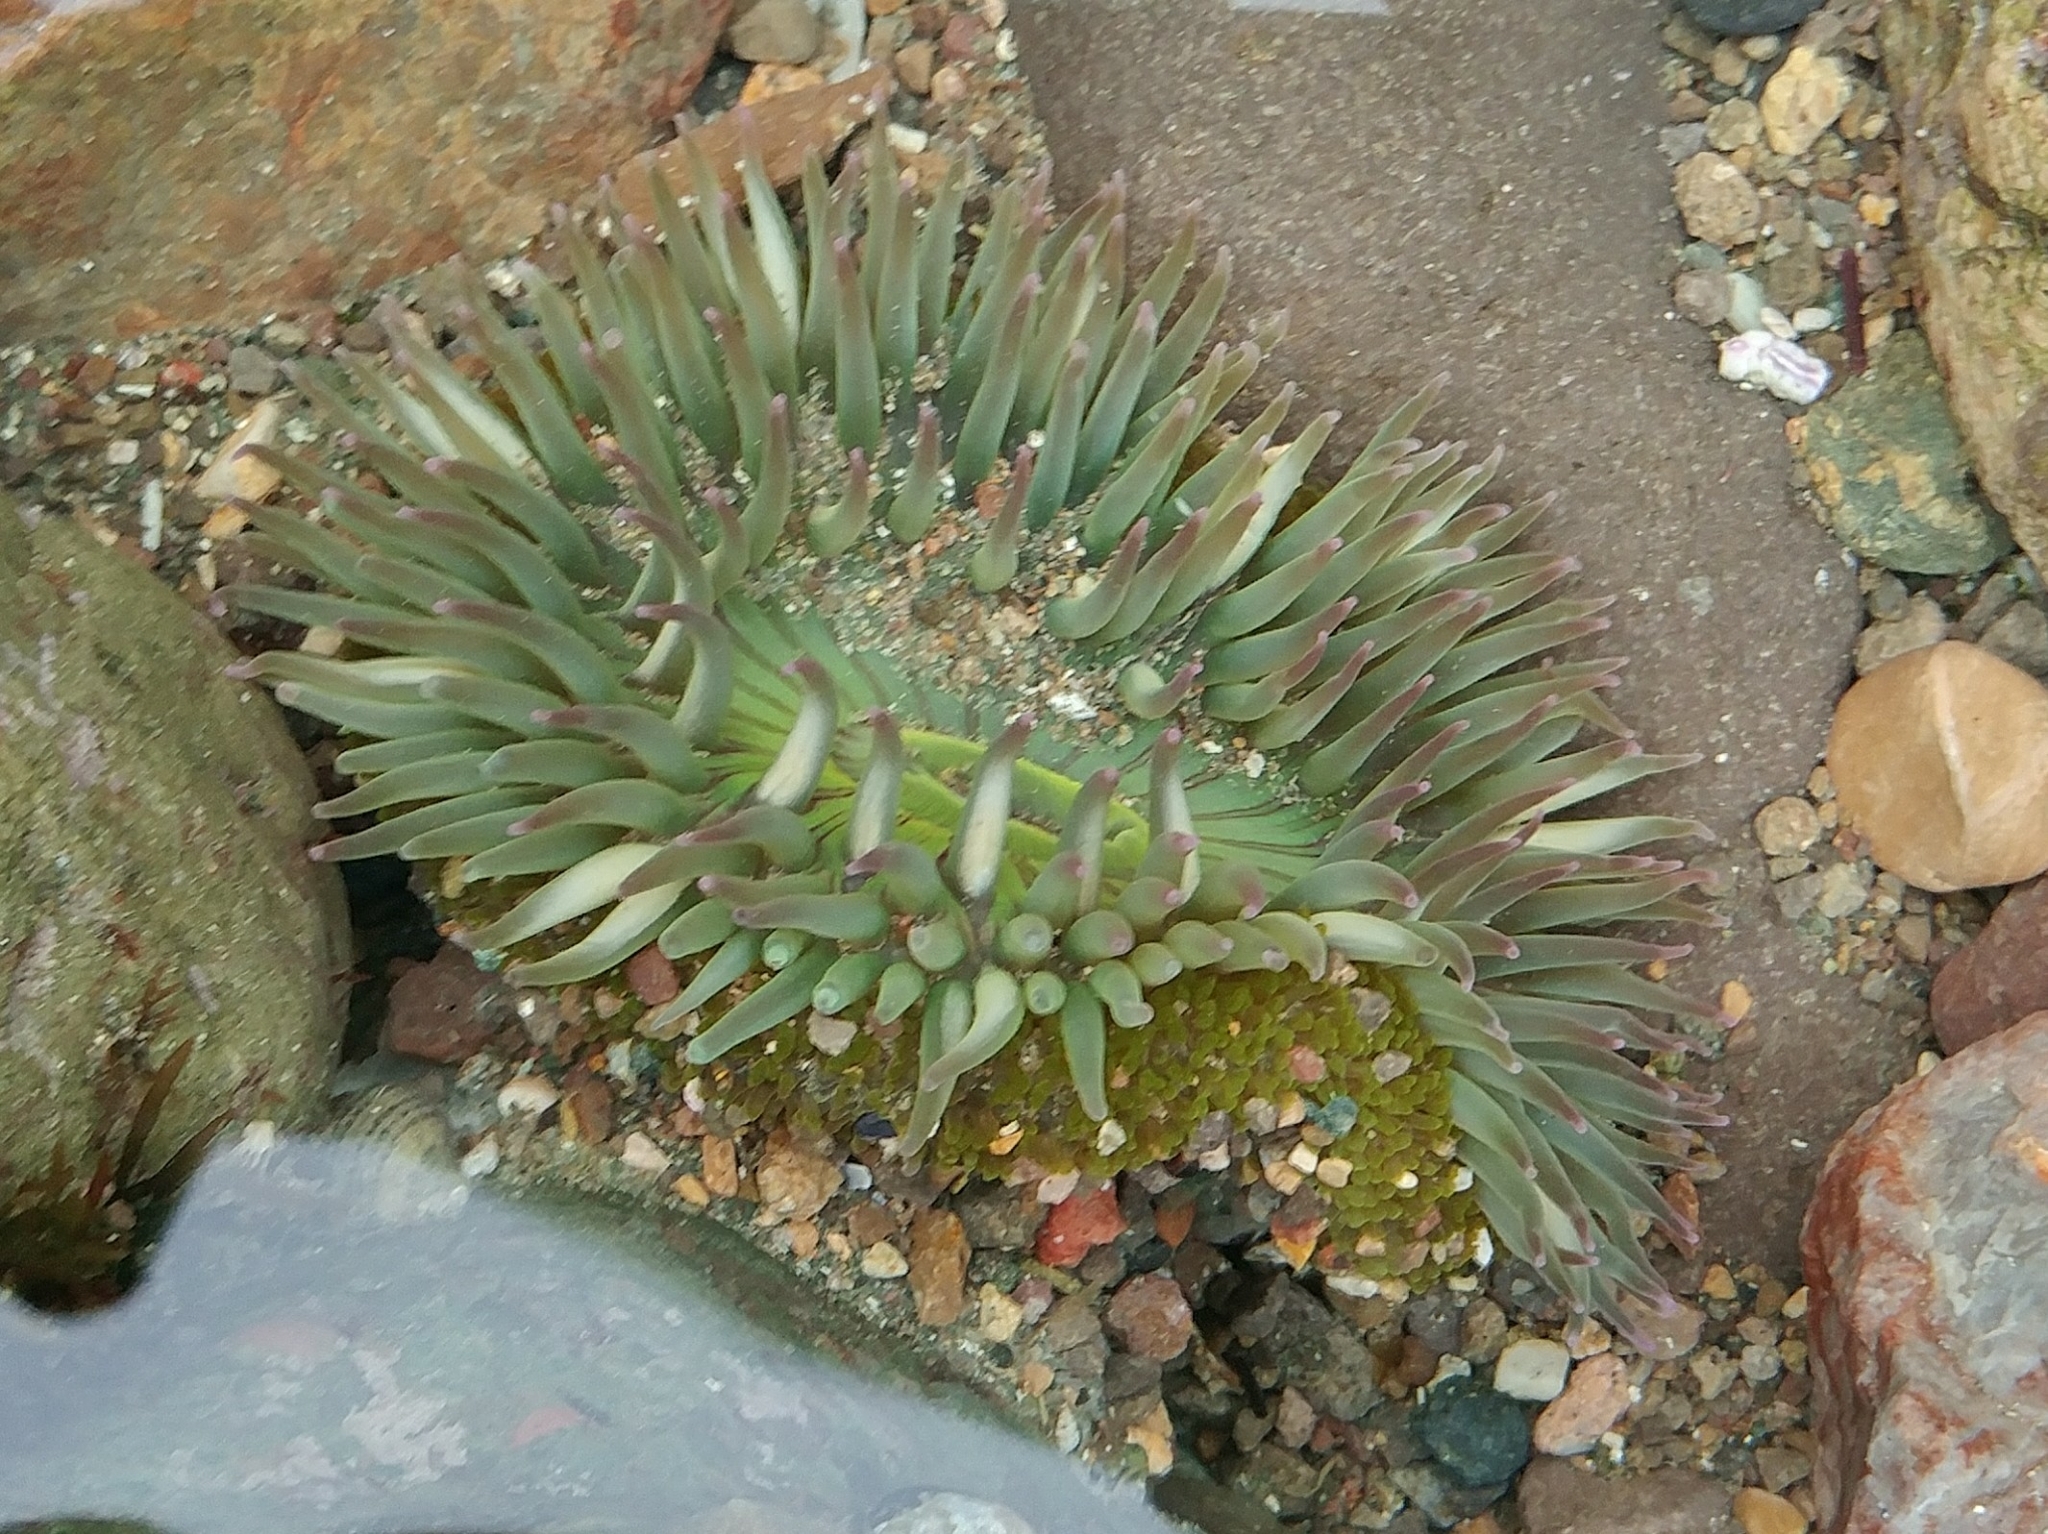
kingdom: Animalia
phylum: Cnidaria
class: Anthozoa
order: Actiniaria
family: Actiniidae
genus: Anthopleura
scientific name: Anthopleura sola
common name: Sun anemone
